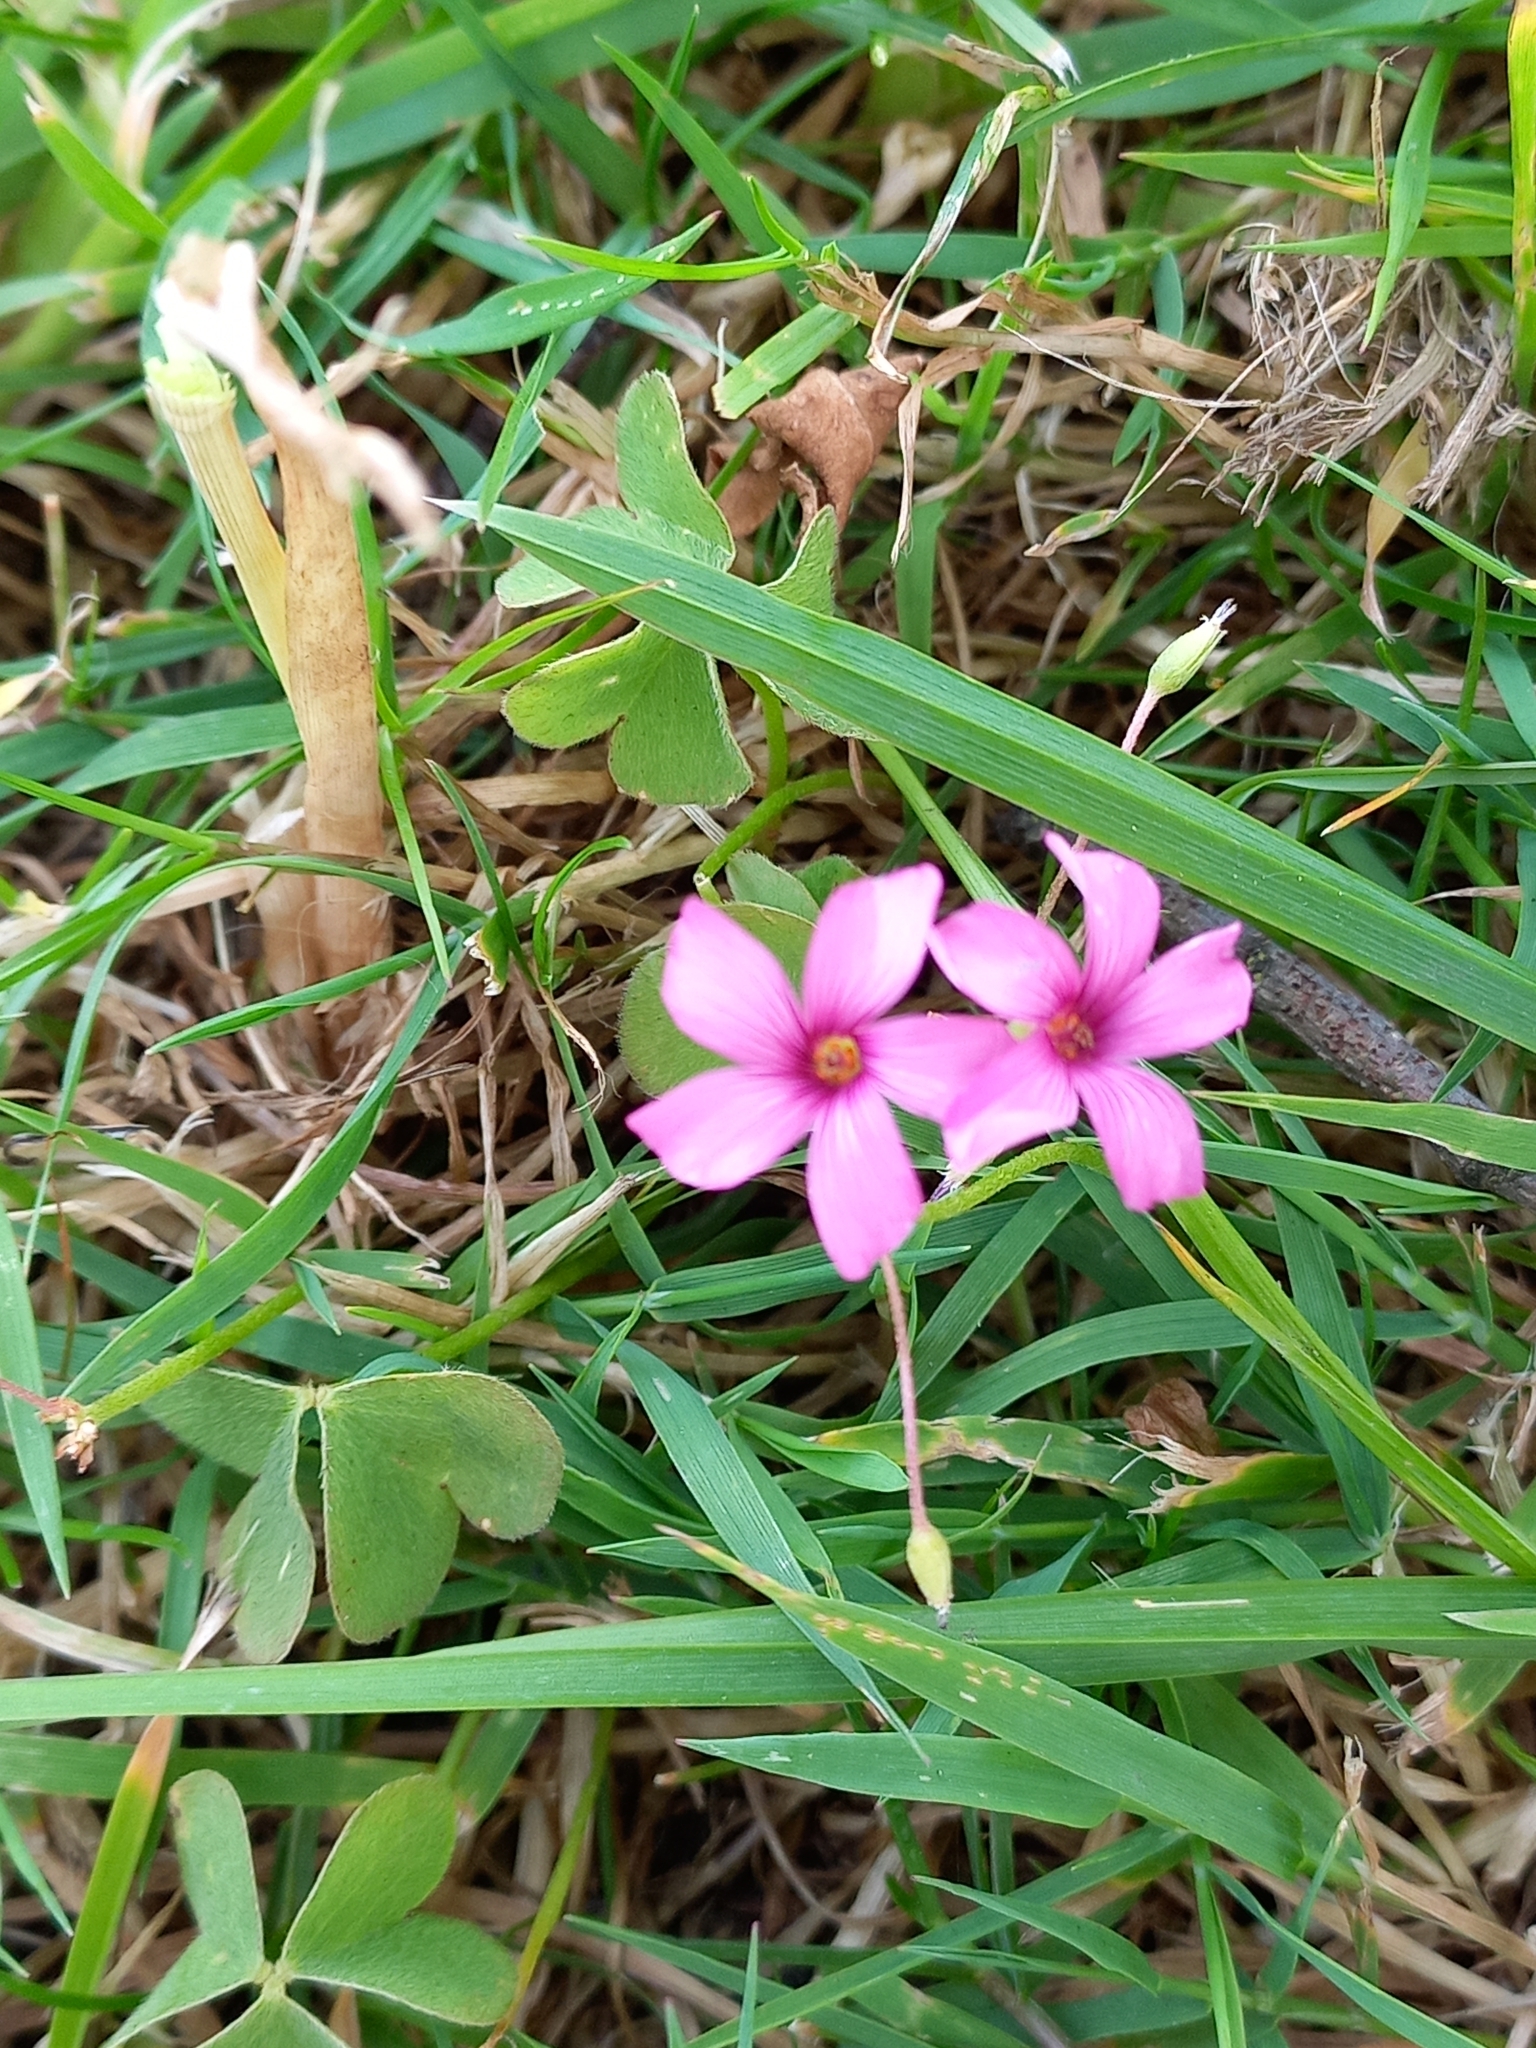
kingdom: Plantae
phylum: Tracheophyta
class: Magnoliopsida
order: Oxalidales
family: Oxalidaceae
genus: Oxalis
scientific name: Oxalis articulata
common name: Pink-sorrel
